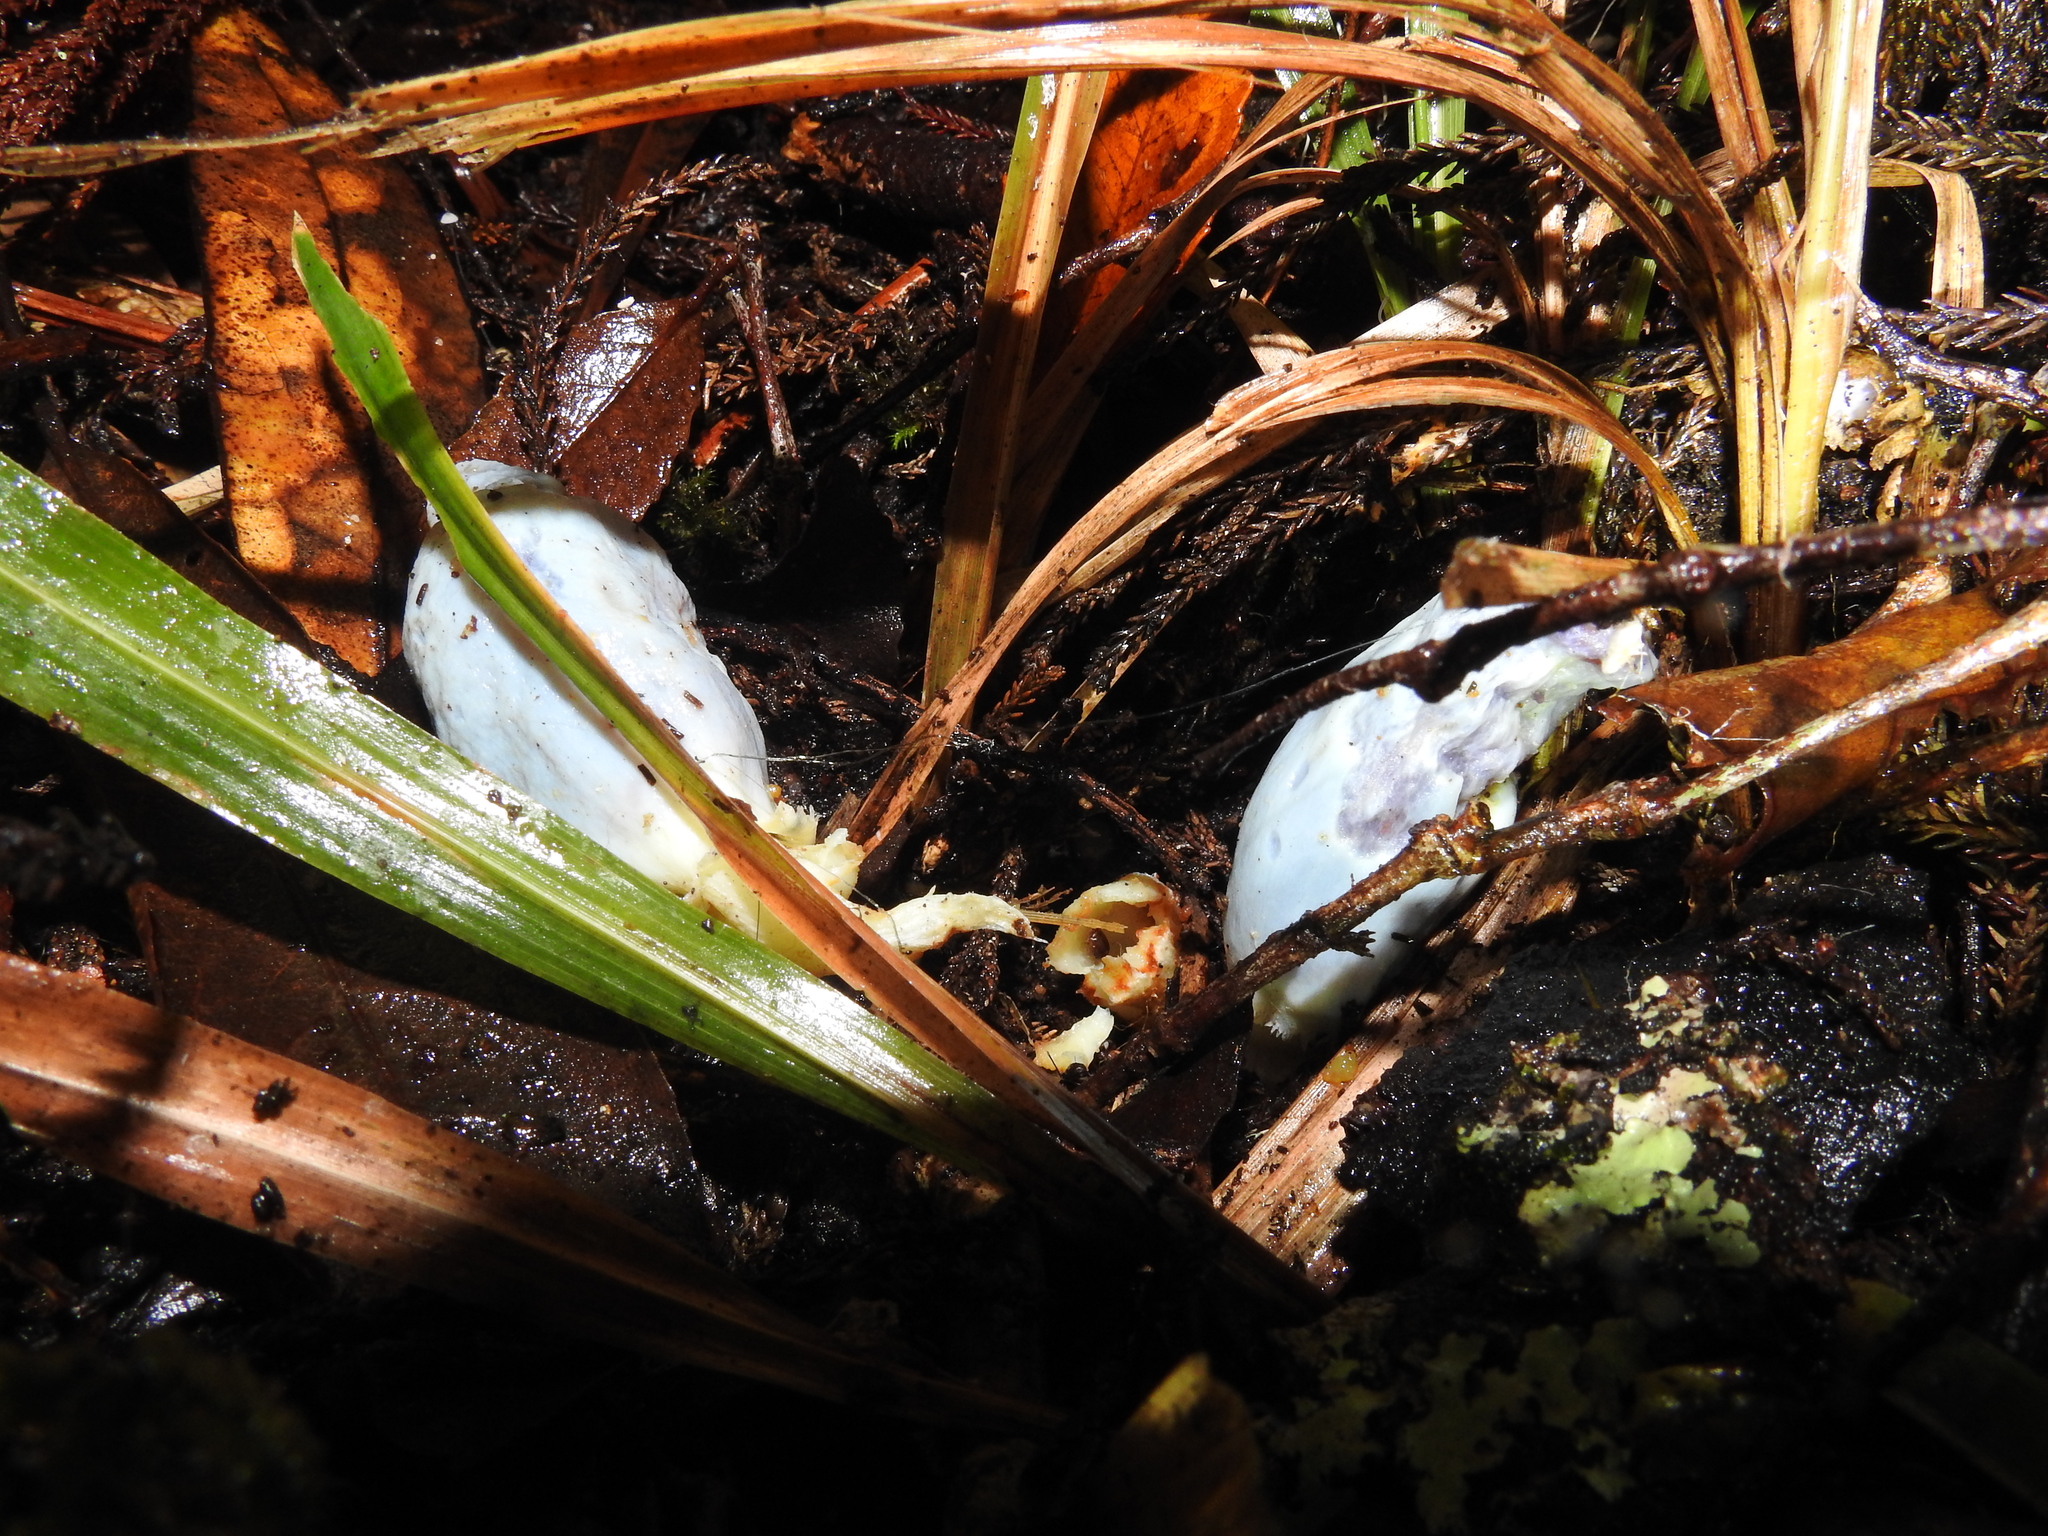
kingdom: Fungi
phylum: Basidiomycota
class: Agaricomycetes
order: Agaricales
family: Agaricaceae
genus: Clavogaster
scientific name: Clavogaster virescens
